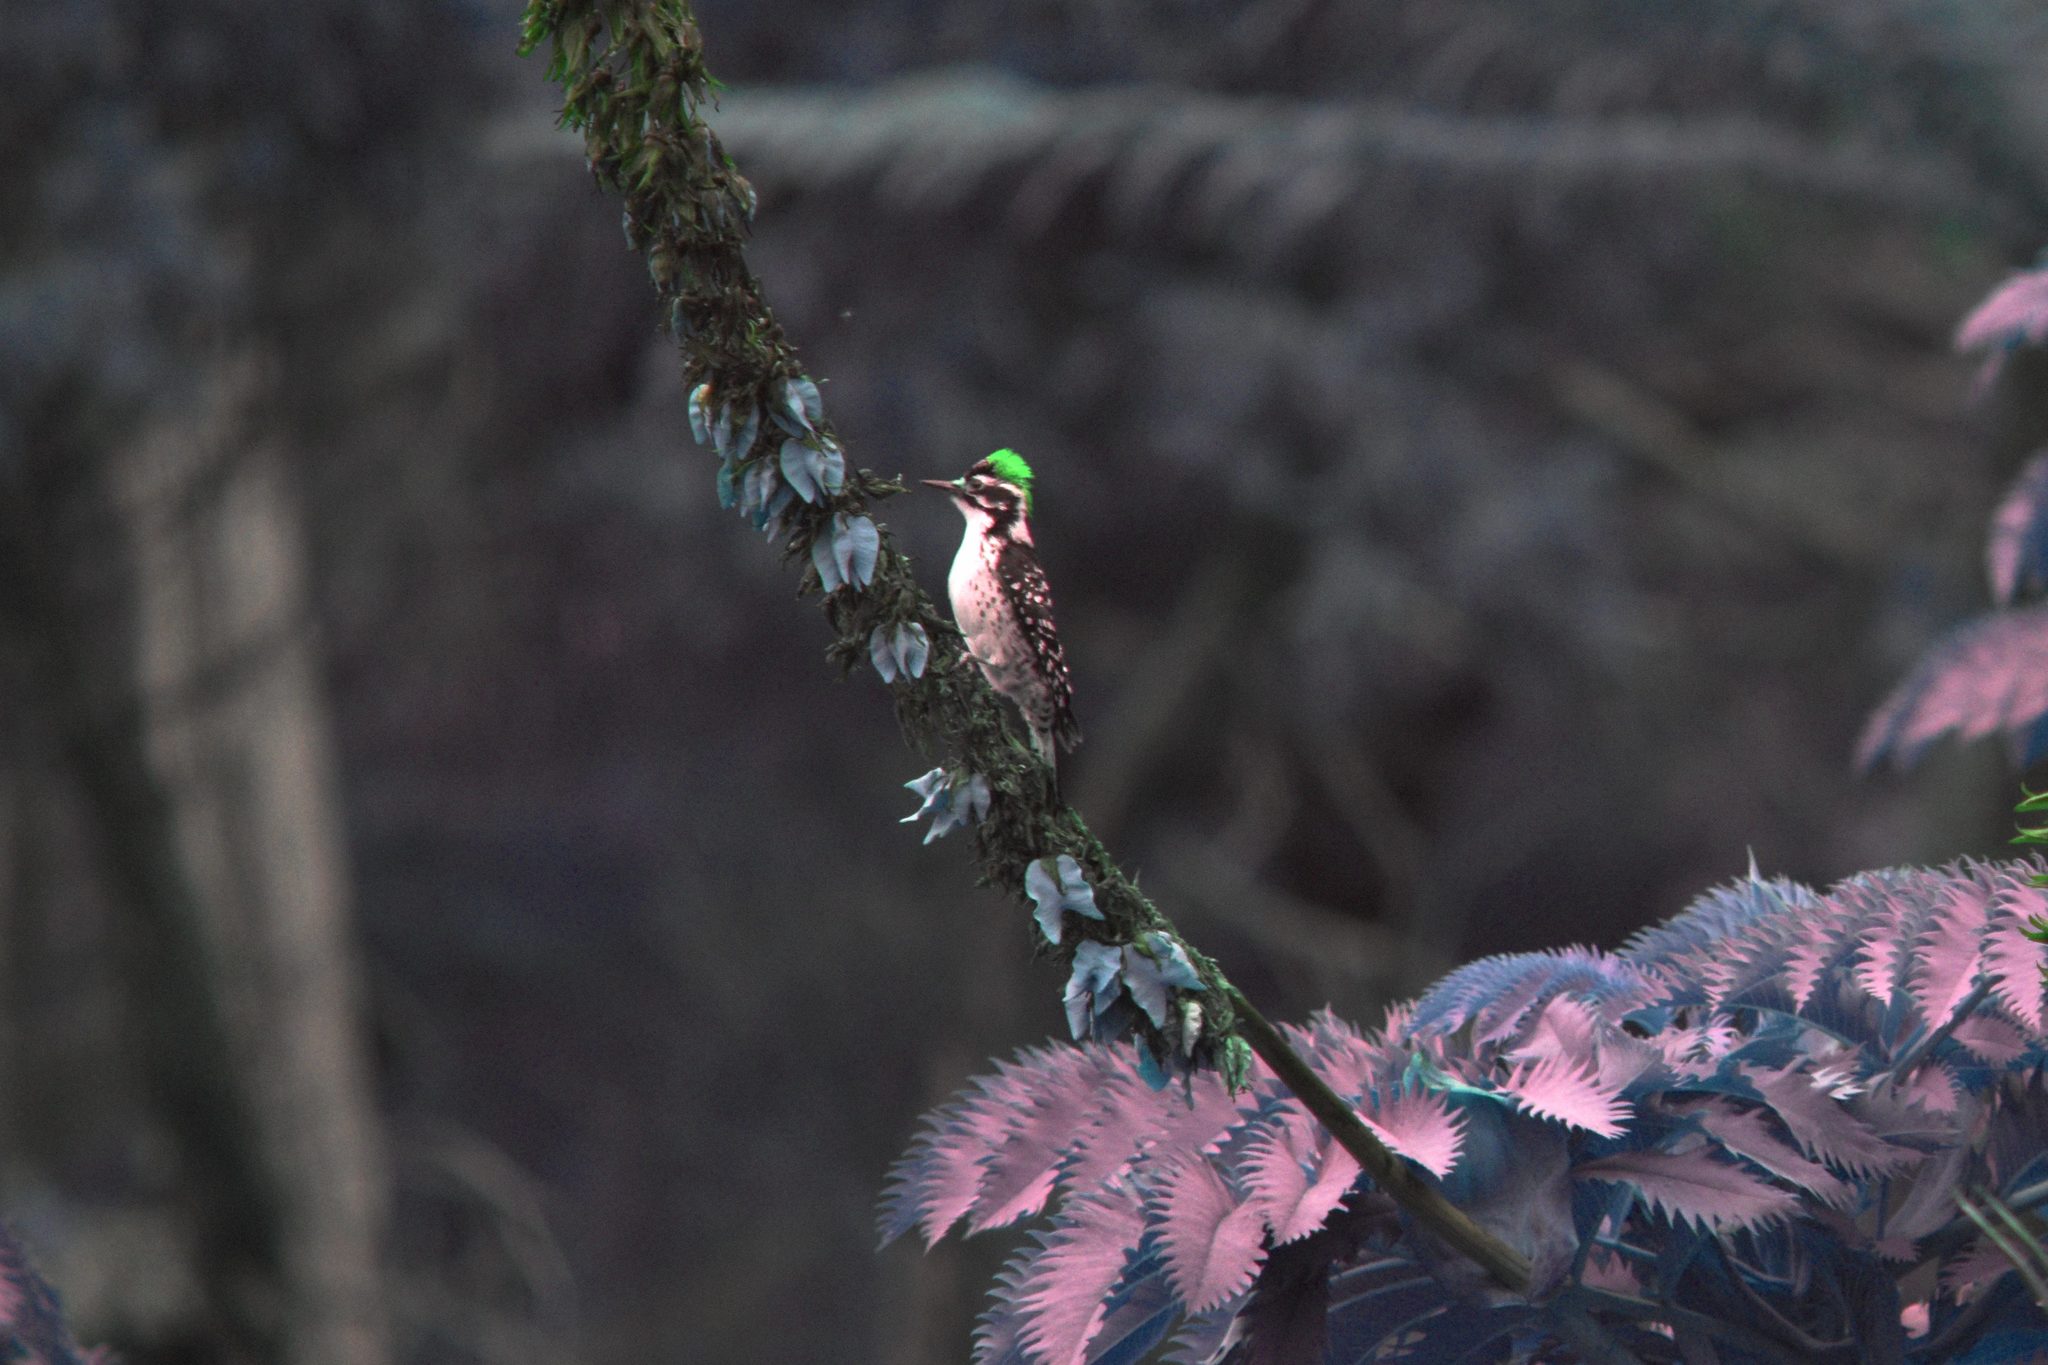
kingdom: Animalia
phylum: Chordata
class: Aves
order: Piciformes
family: Picidae
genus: Dryobates
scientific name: Dryobates nuttallii
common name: Nuttall's woodpecker
